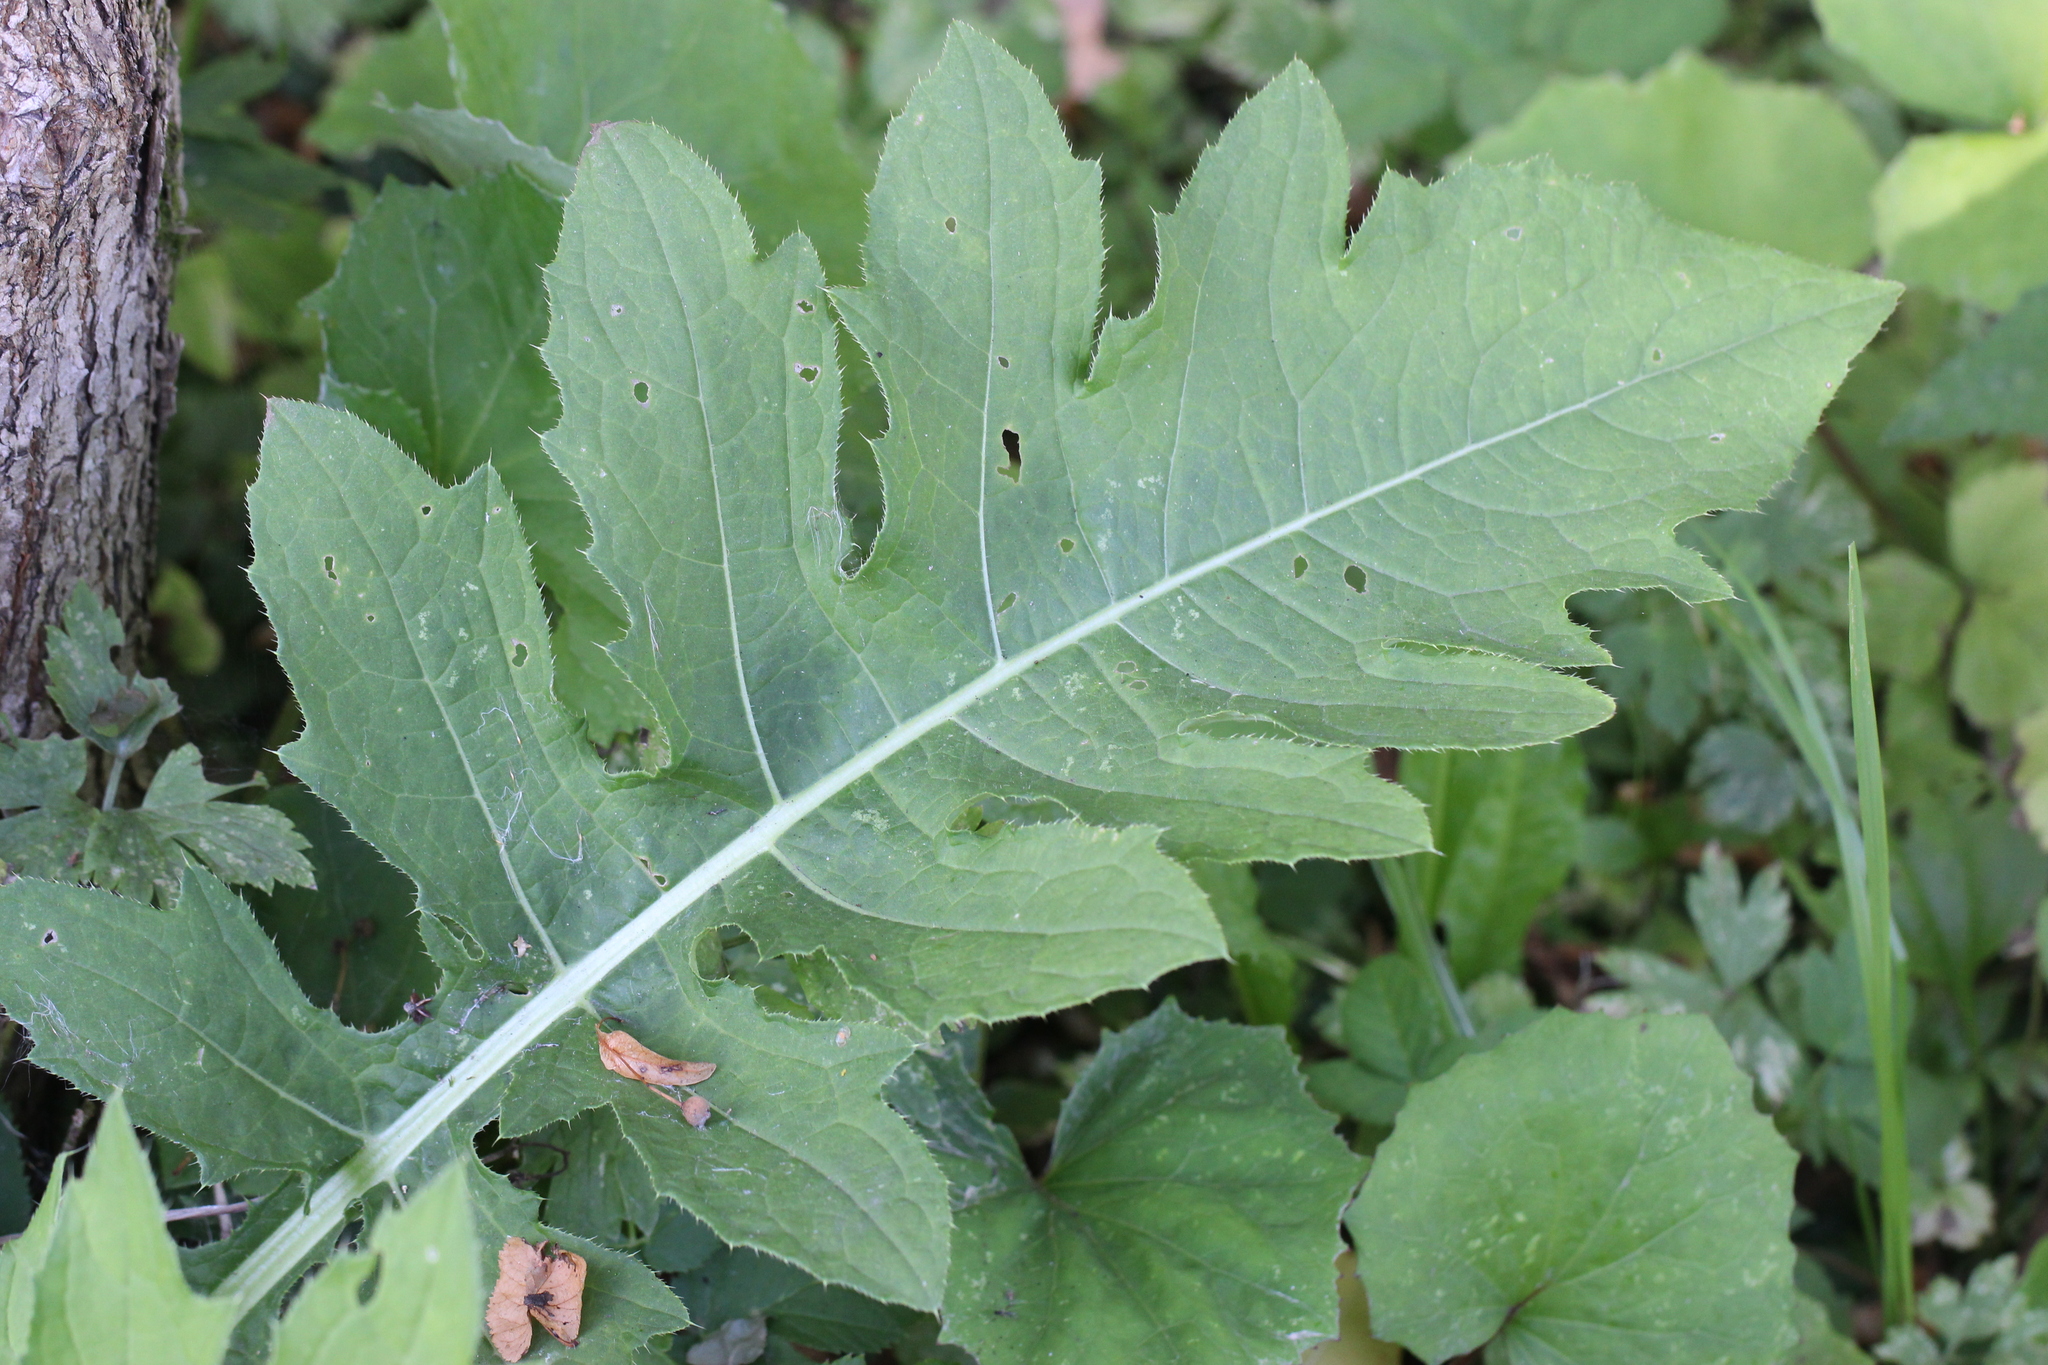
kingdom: Plantae
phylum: Tracheophyta
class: Magnoliopsida
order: Asterales
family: Asteraceae
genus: Cirsium
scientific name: Cirsium oleraceum
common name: Cabbage thistle
